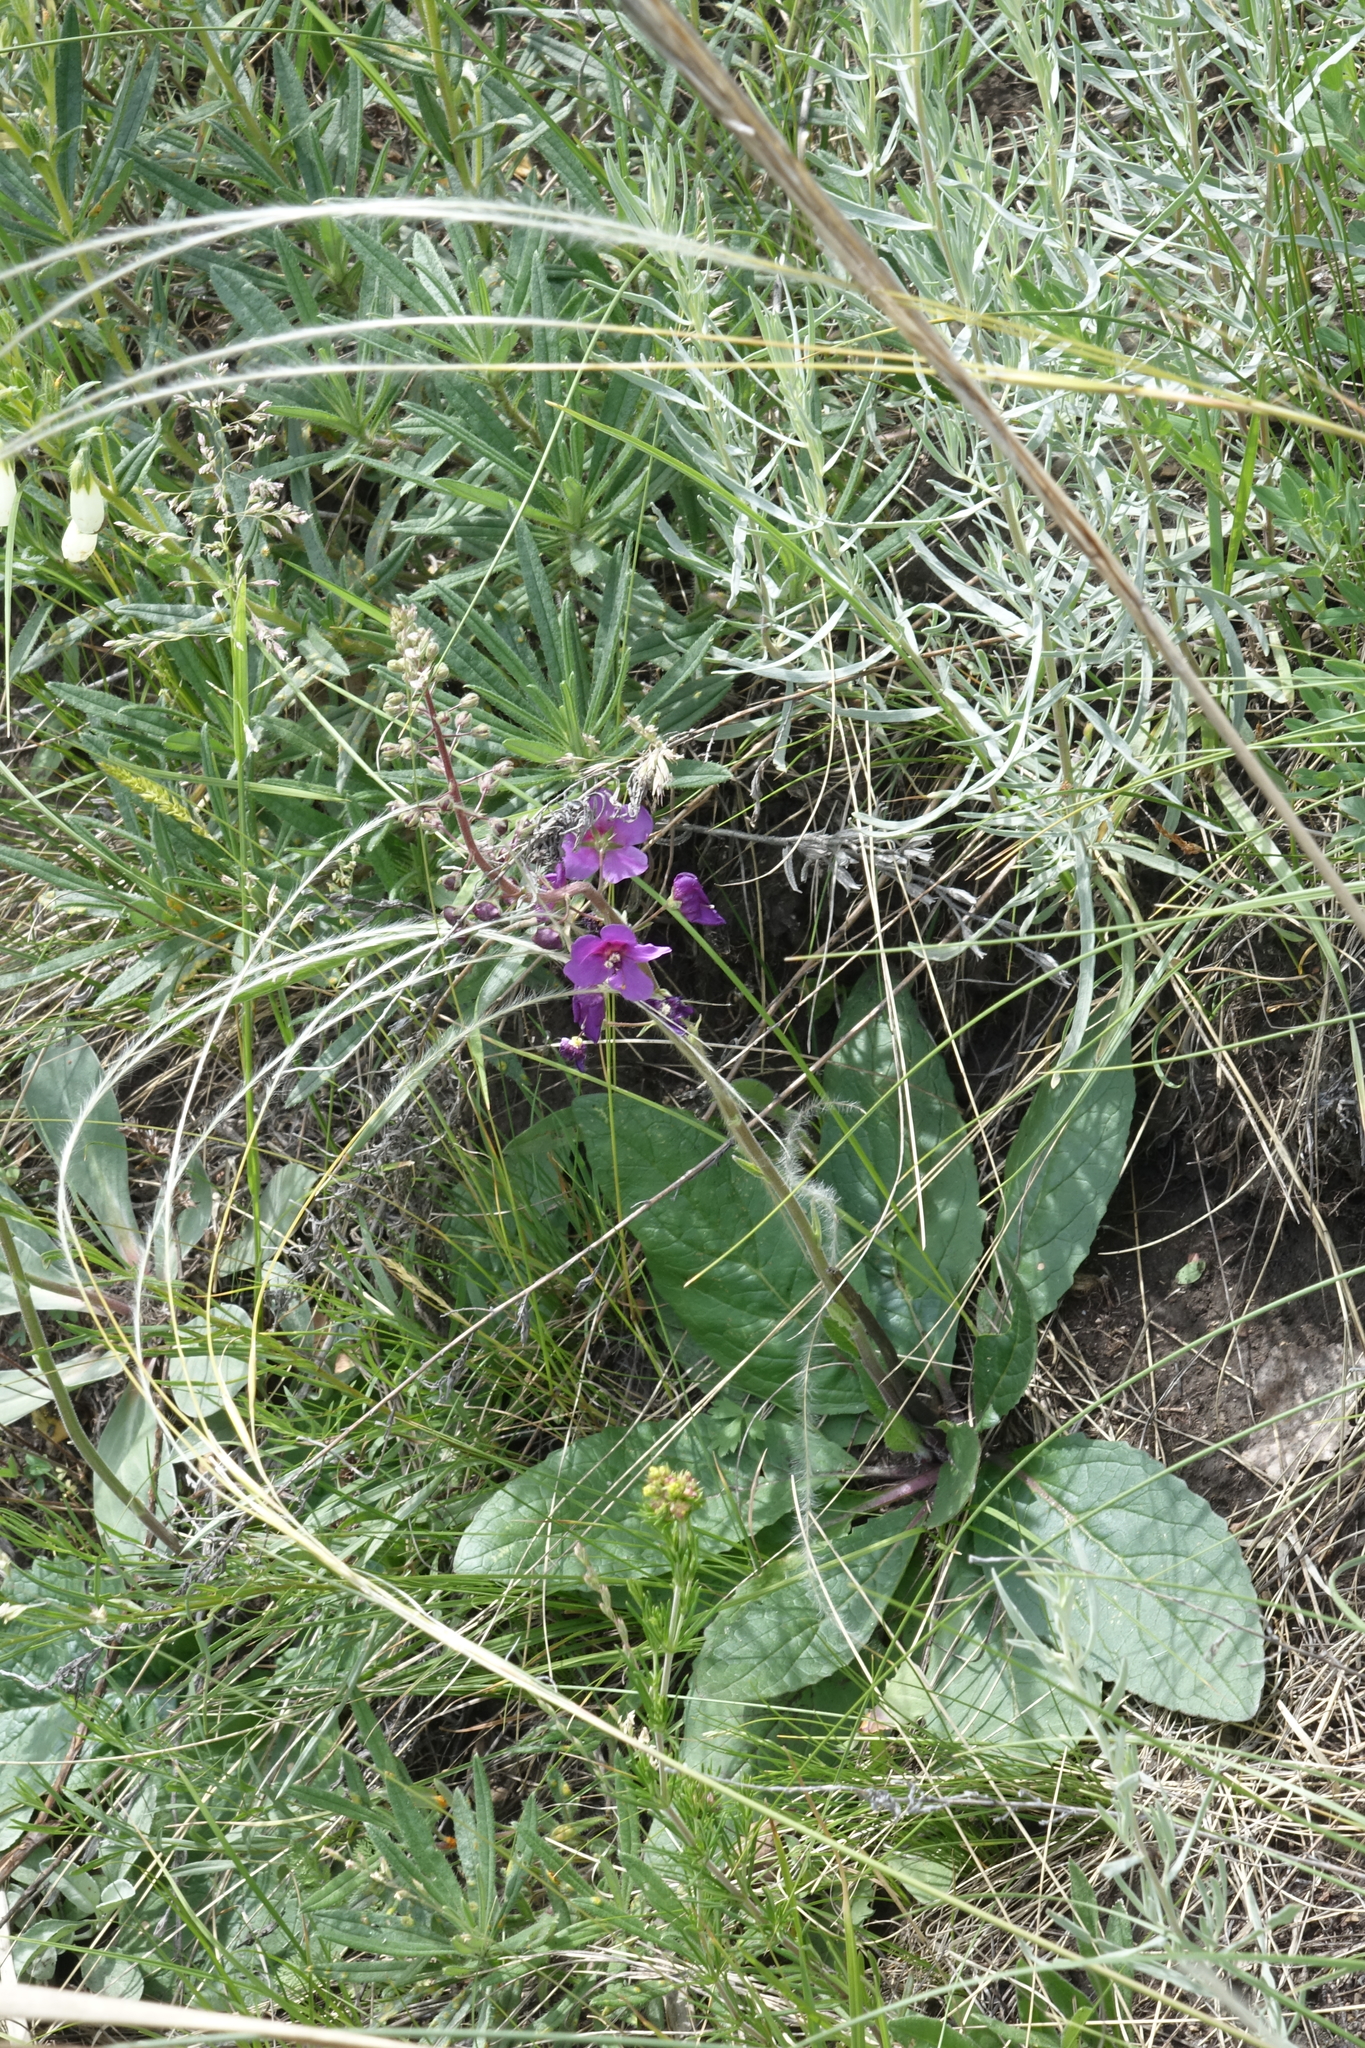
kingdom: Plantae
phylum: Tracheophyta
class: Magnoliopsida
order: Lamiales
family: Scrophulariaceae
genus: Verbascum
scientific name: Verbascum phoeniceum
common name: Purple mullein
